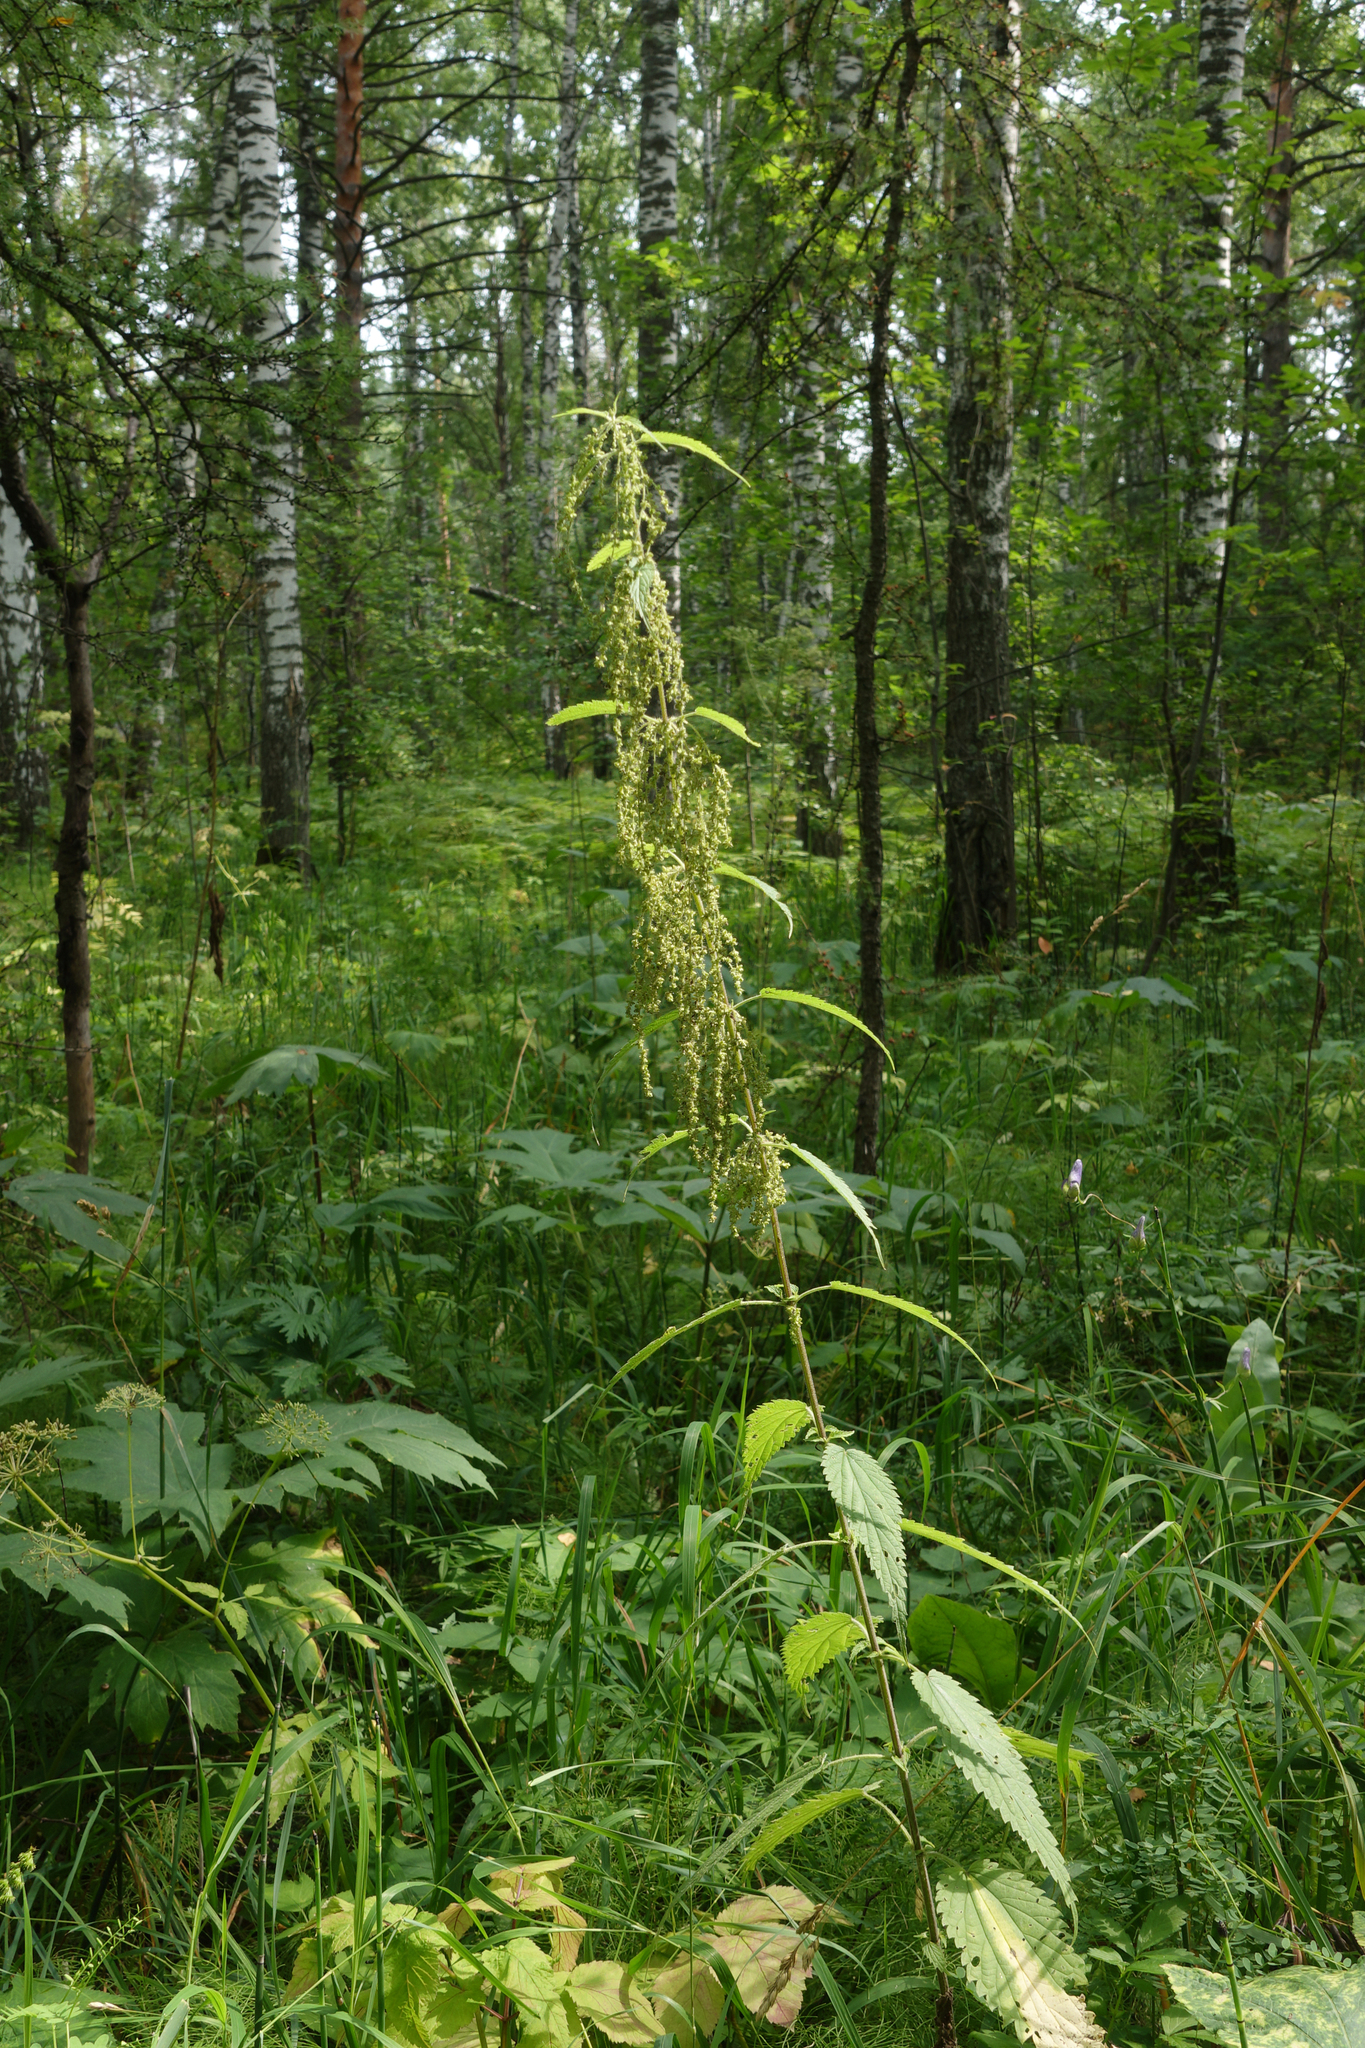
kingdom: Plantae
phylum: Tracheophyta
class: Magnoliopsida
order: Rosales
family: Urticaceae
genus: Urtica
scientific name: Urtica dioica
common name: Common nettle
